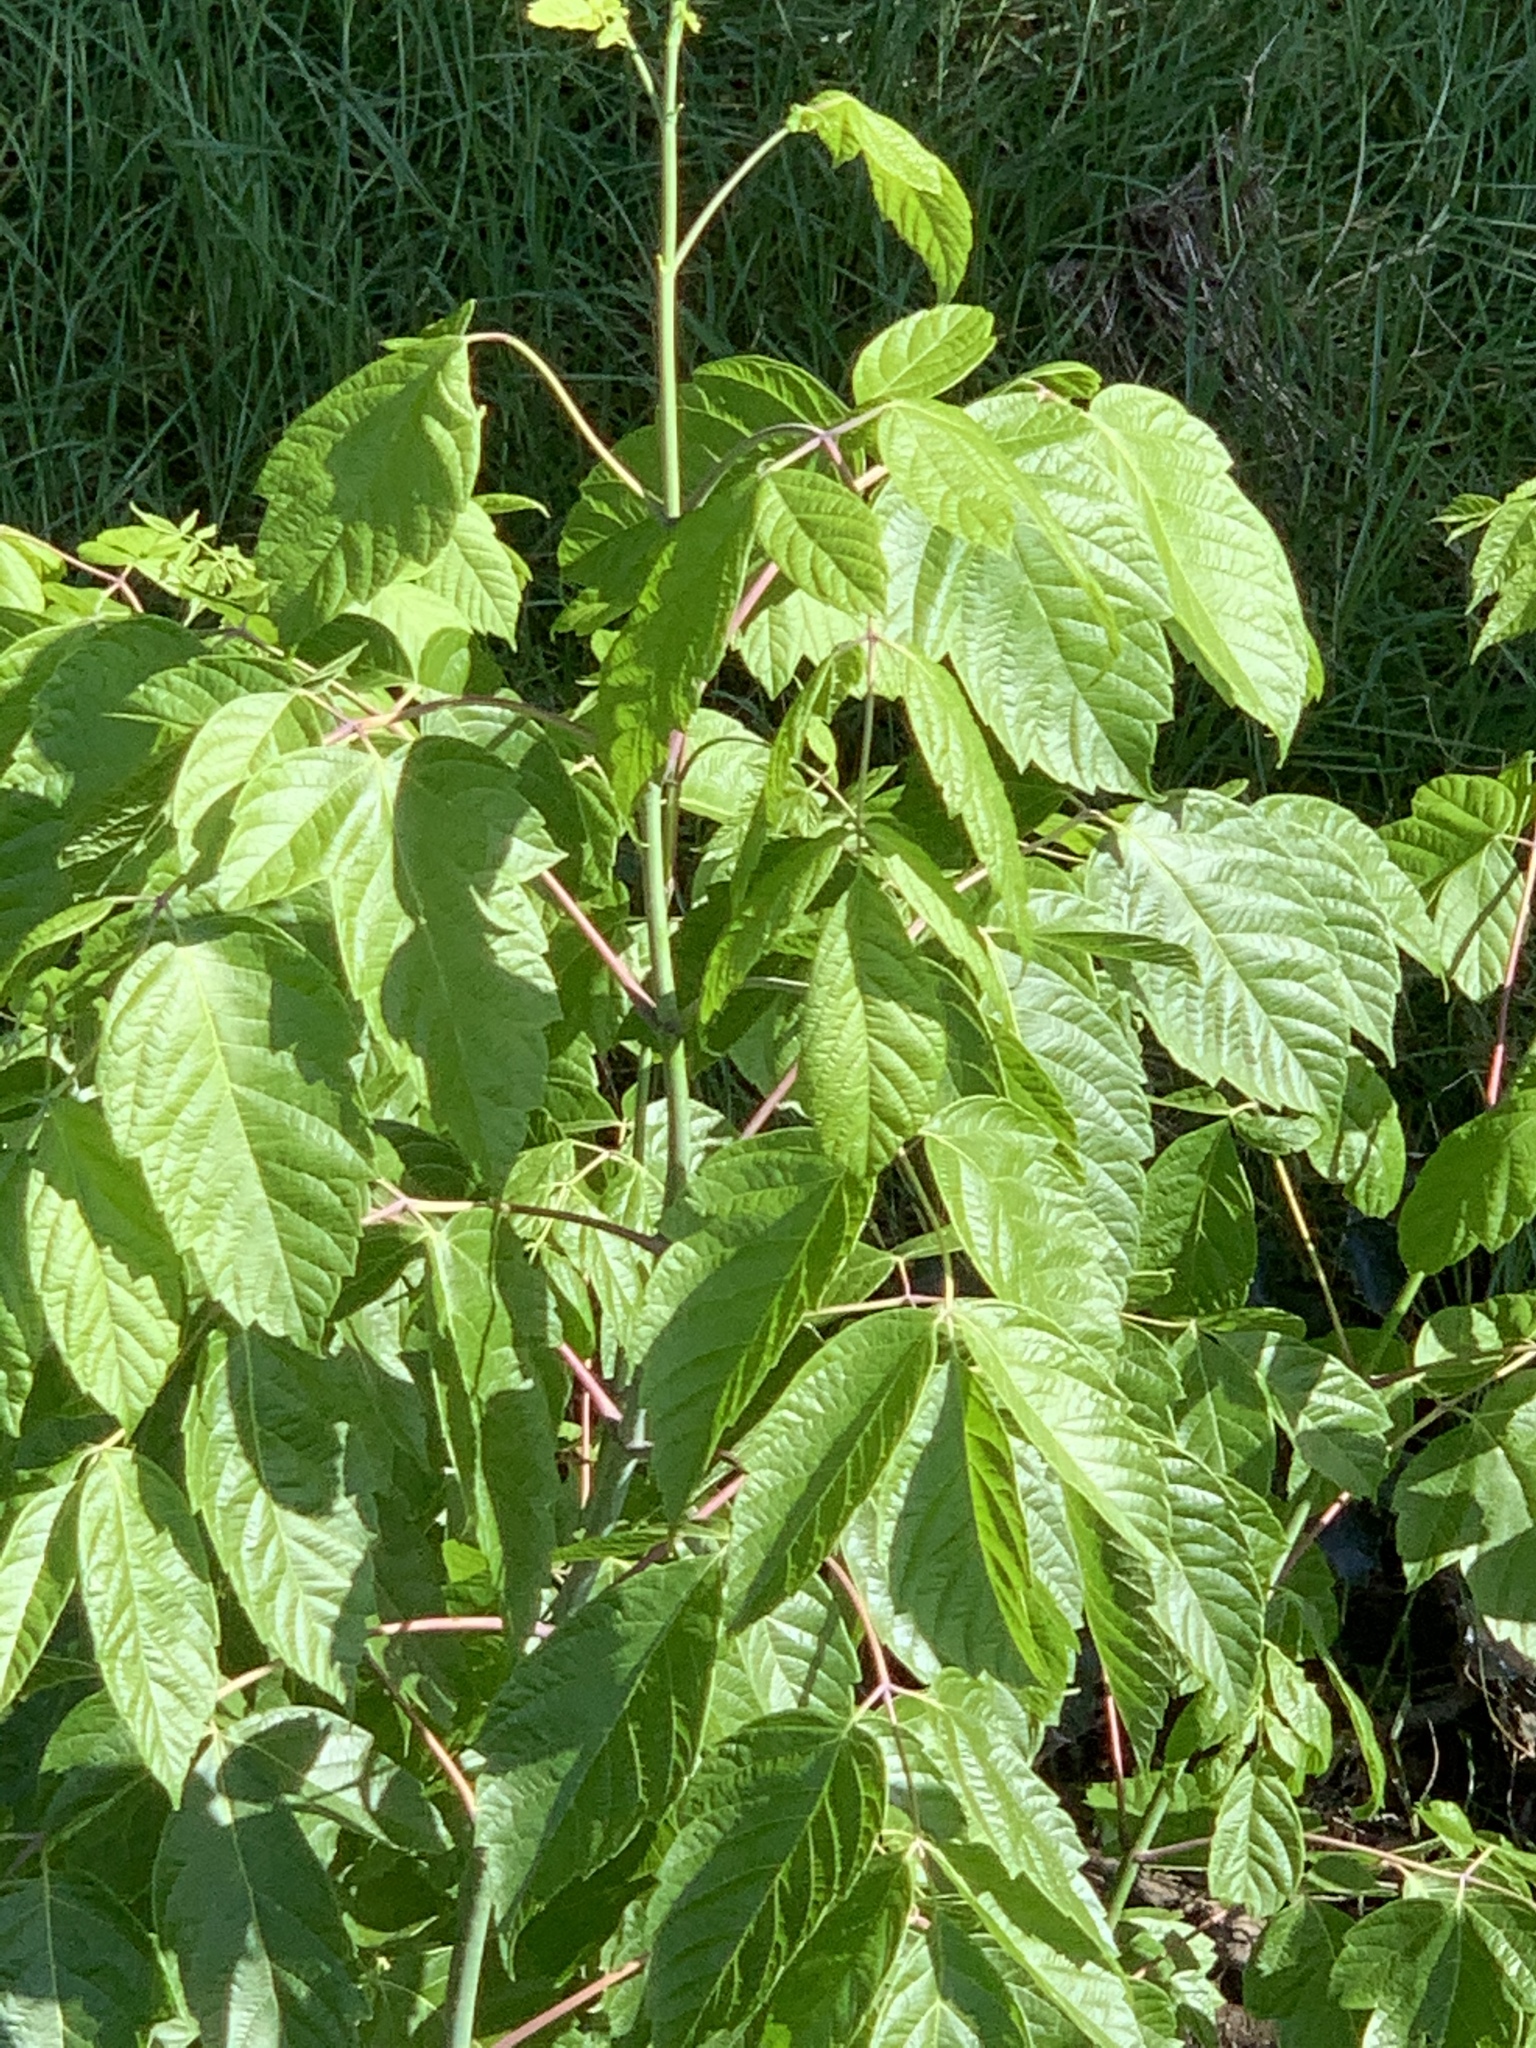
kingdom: Plantae
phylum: Tracheophyta
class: Magnoliopsida
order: Sapindales
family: Sapindaceae
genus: Acer
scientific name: Acer negundo
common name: Ashleaf maple
